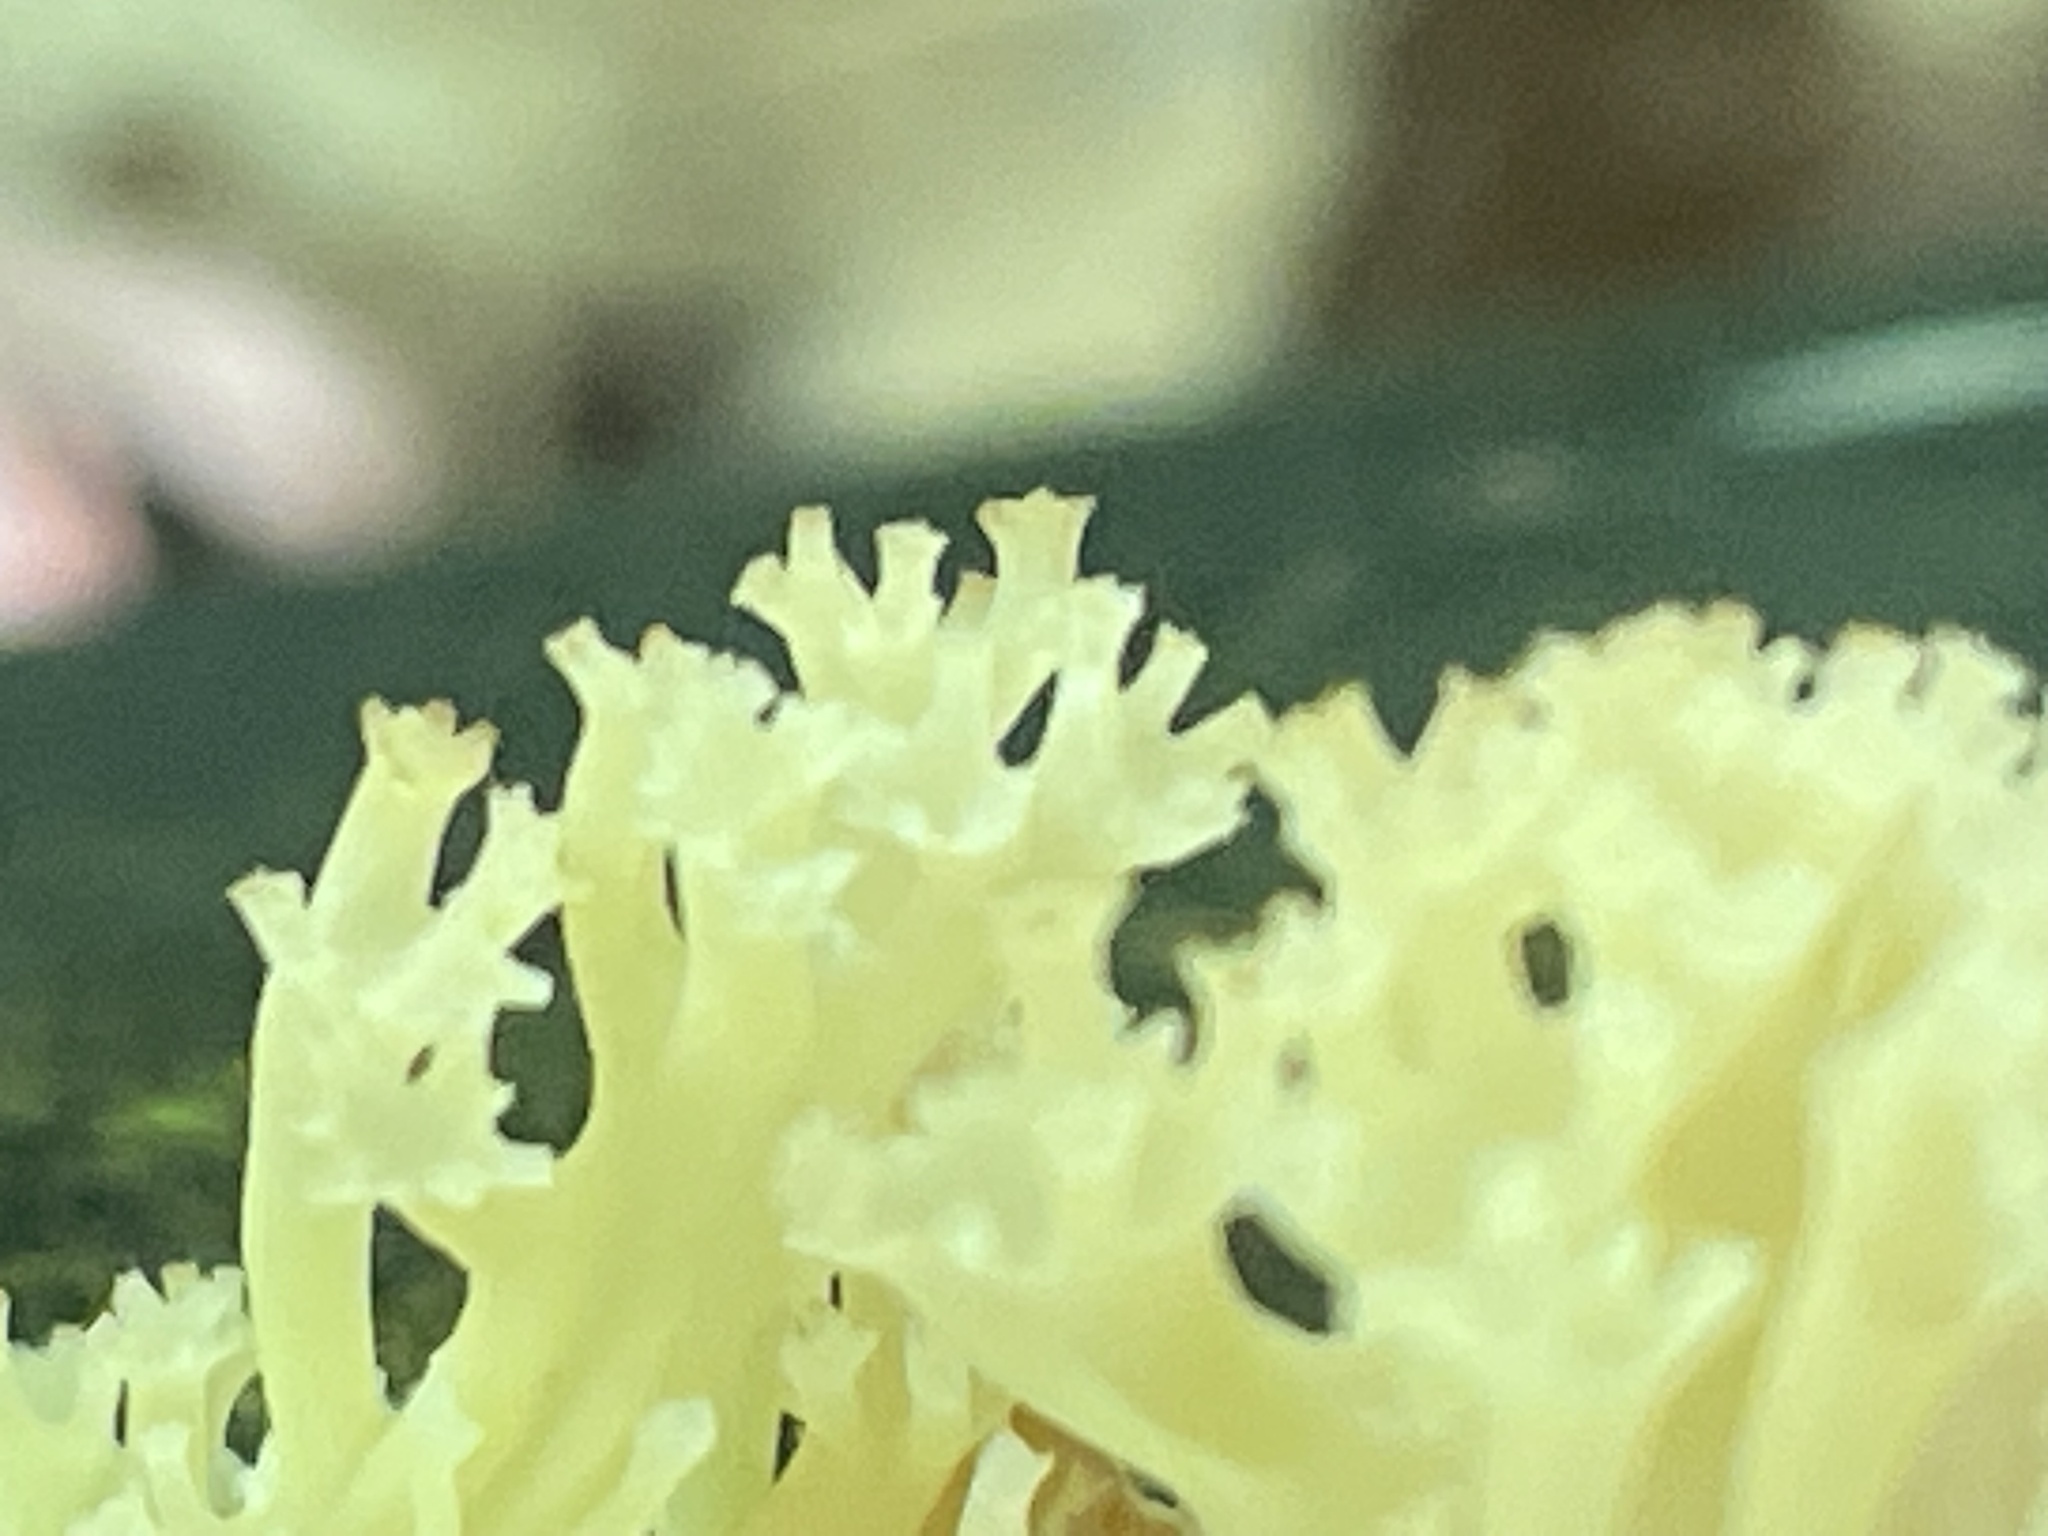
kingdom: Fungi
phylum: Basidiomycota
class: Agaricomycetes
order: Russulales
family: Auriscalpiaceae
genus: Artomyces
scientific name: Artomyces pyxidatus
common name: Crown-tipped coral fungus
